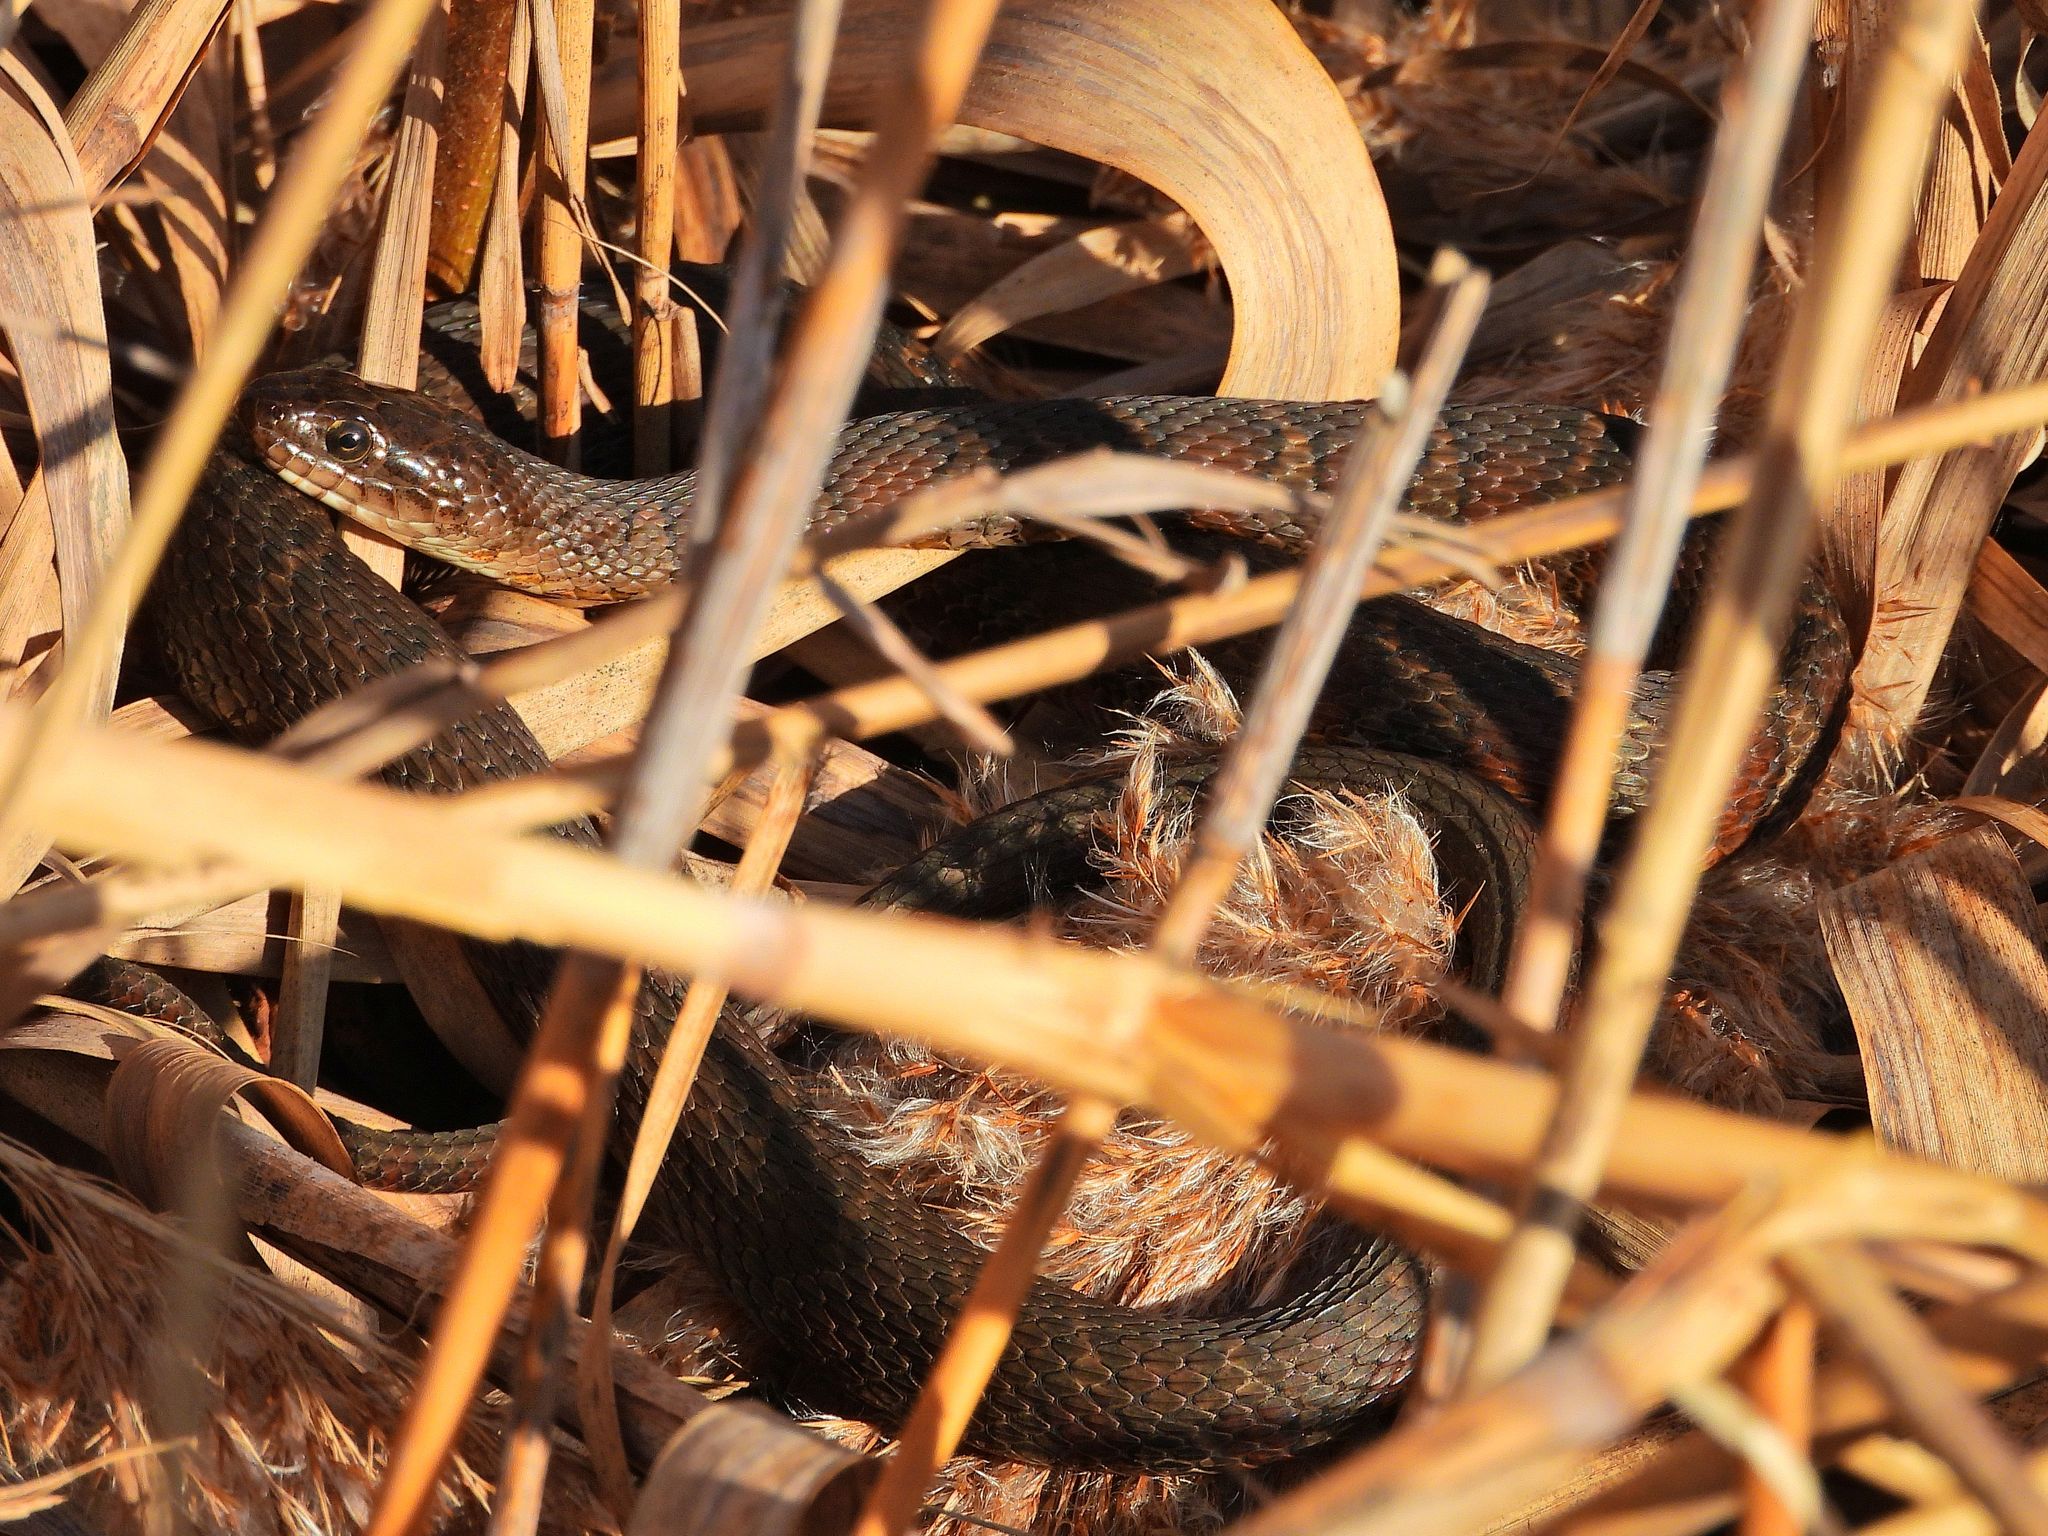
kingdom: Animalia
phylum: Chordata
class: Squamata
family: Colubridae
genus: Nerodia
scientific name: Nerodia sipedon
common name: Northern water snake
